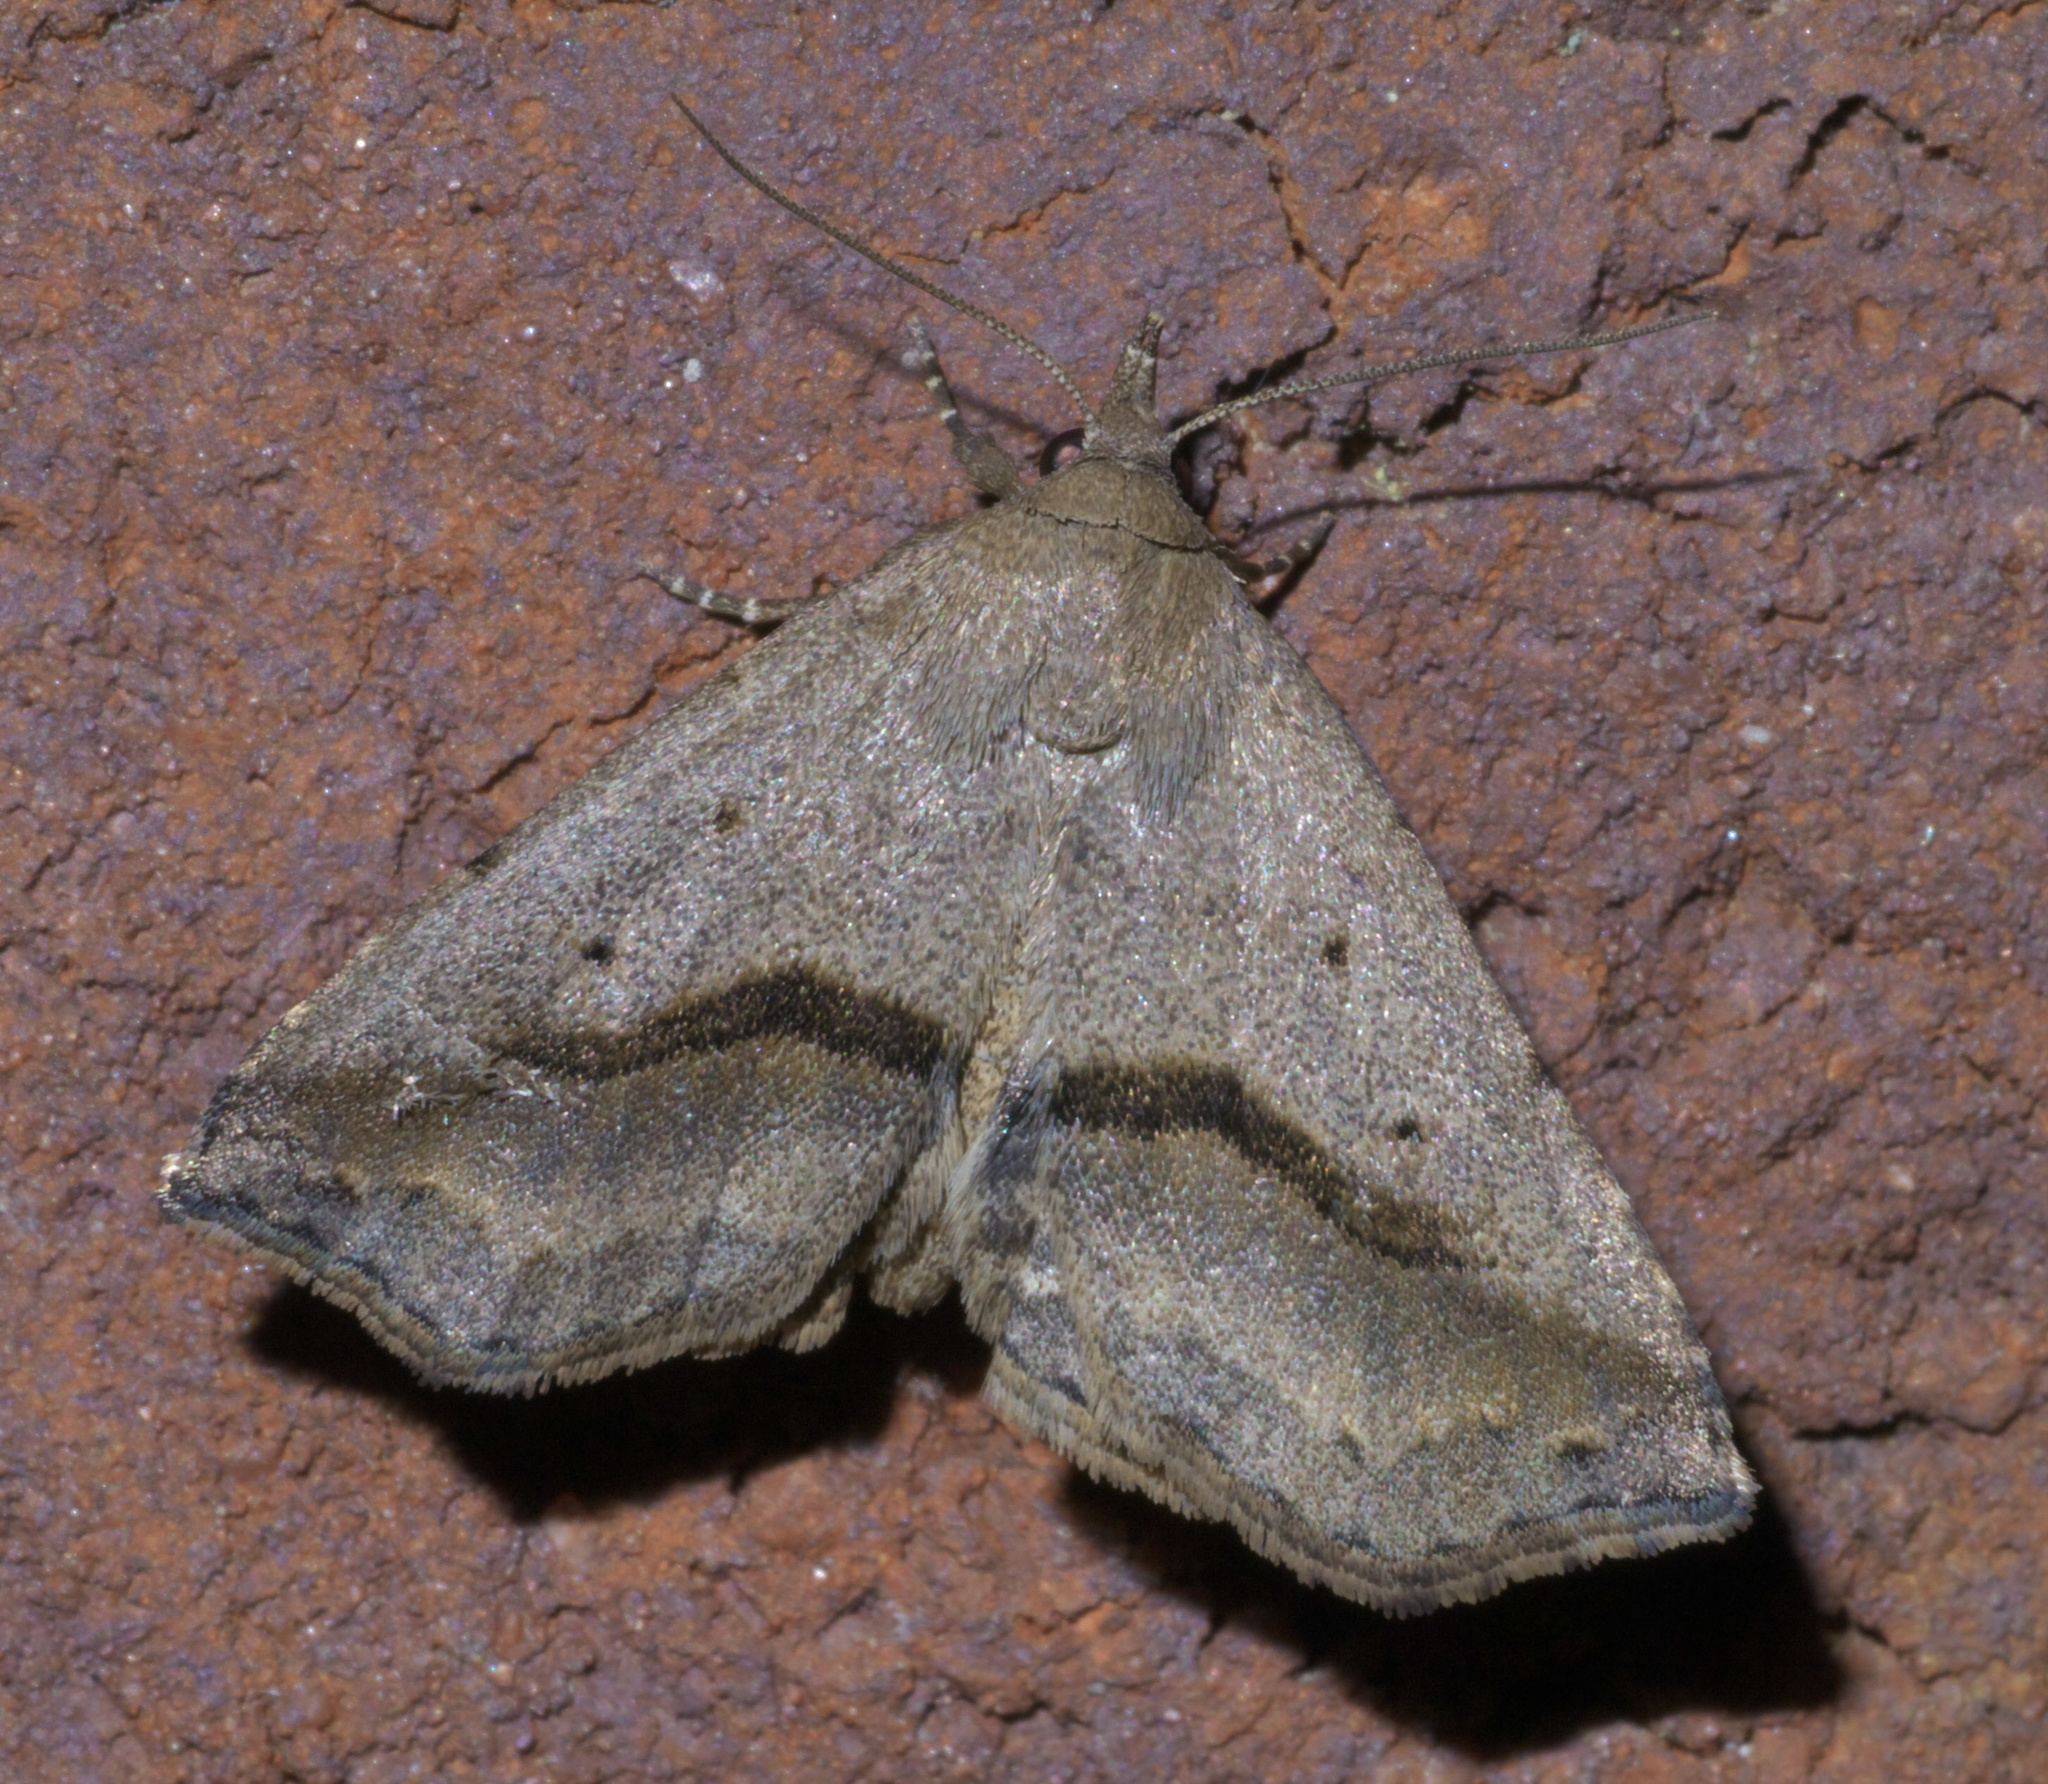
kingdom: Animalia
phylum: Arthropoda
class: Insecta
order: Lepidoptera
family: Erebidae
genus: Spargaloma
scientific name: Spargaloma perditalis
